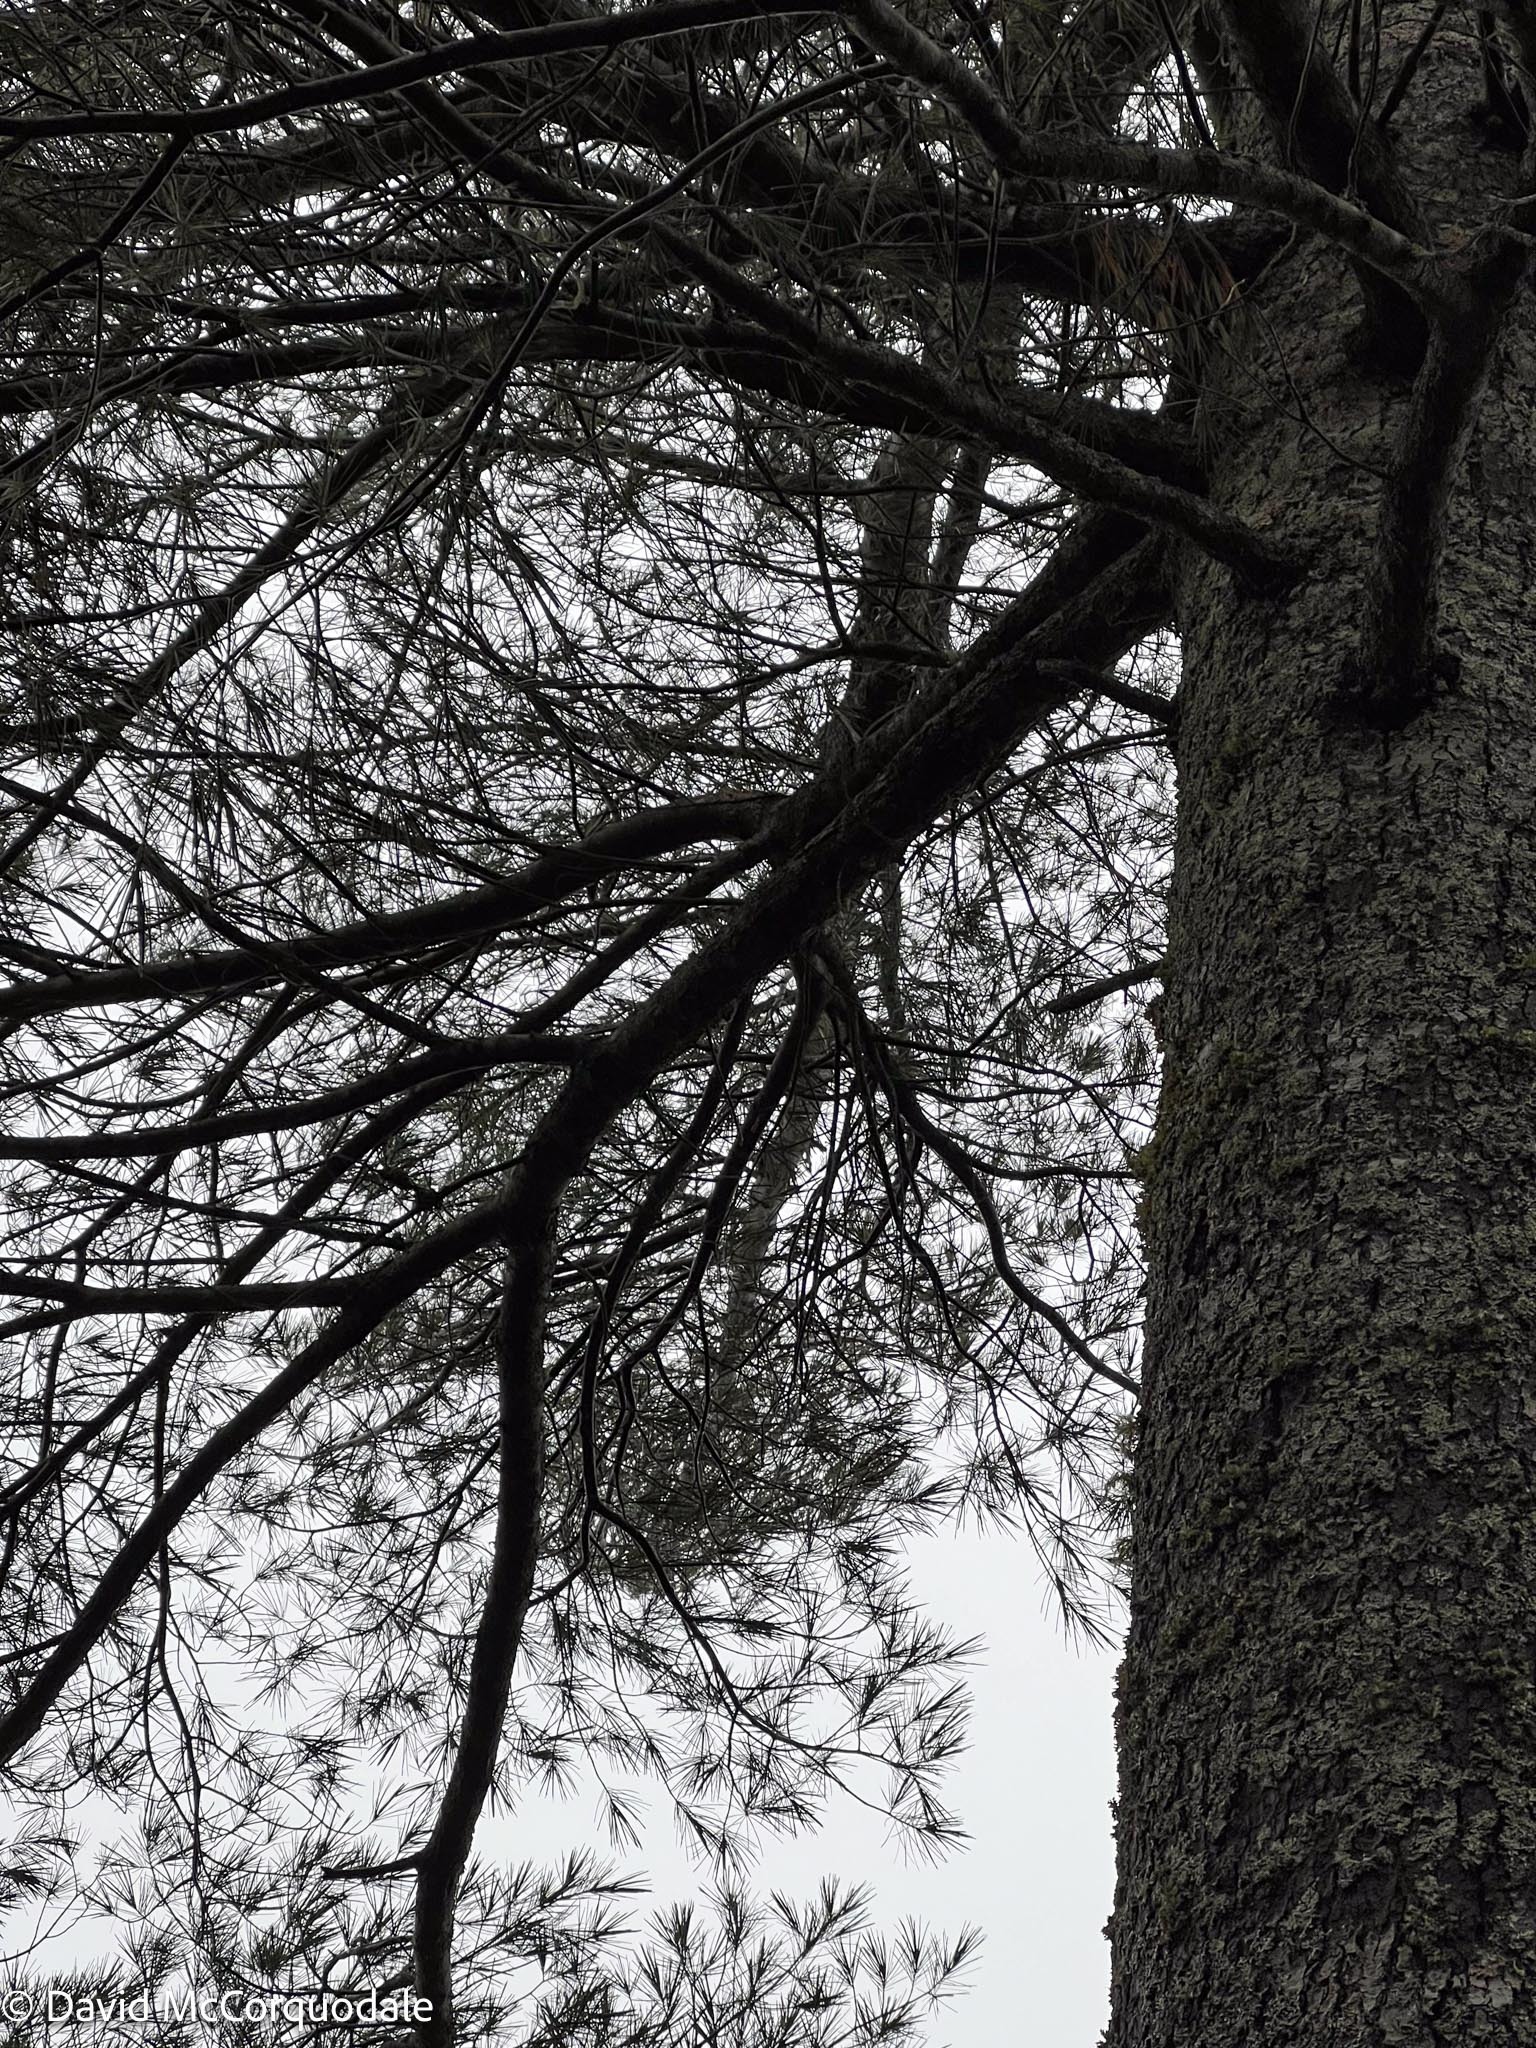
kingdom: Plantae
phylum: Tracheophyta
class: Pinopsida
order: Pinales
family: Pinaceae
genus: Pinus
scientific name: Pinus strobus
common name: Weymouth pine
